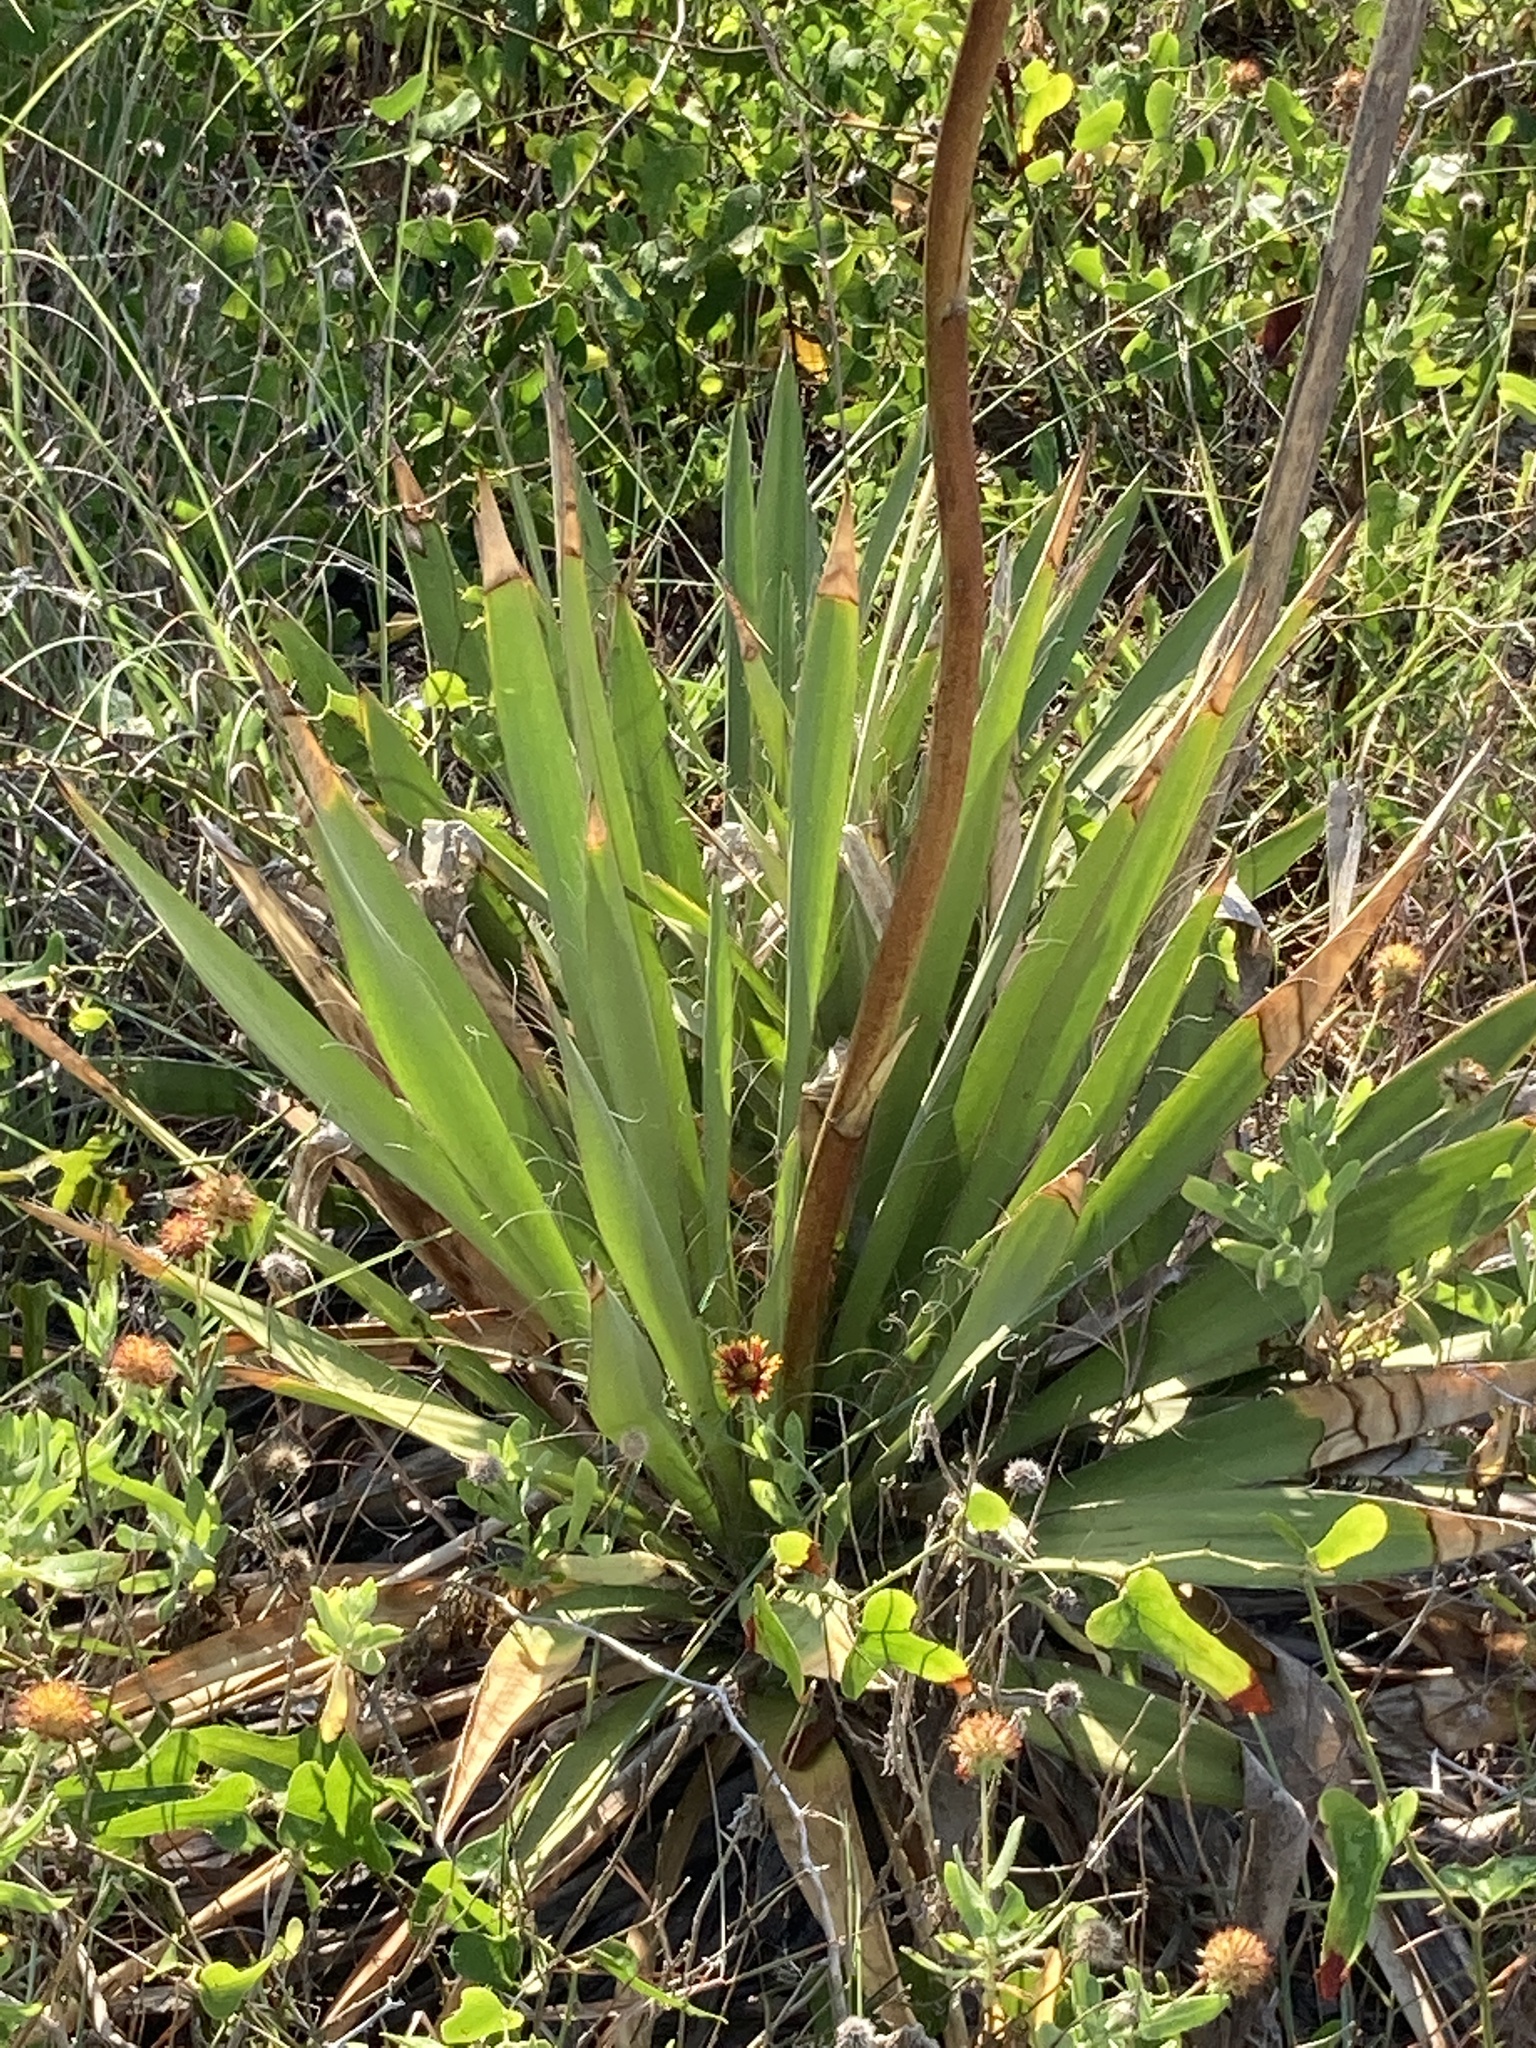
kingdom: Plantae
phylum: Tracheophyta
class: Liliopsida
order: Asparagales
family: Asparagaceae
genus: Yucca
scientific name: Yucca filamentosa
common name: Adam's-needle
